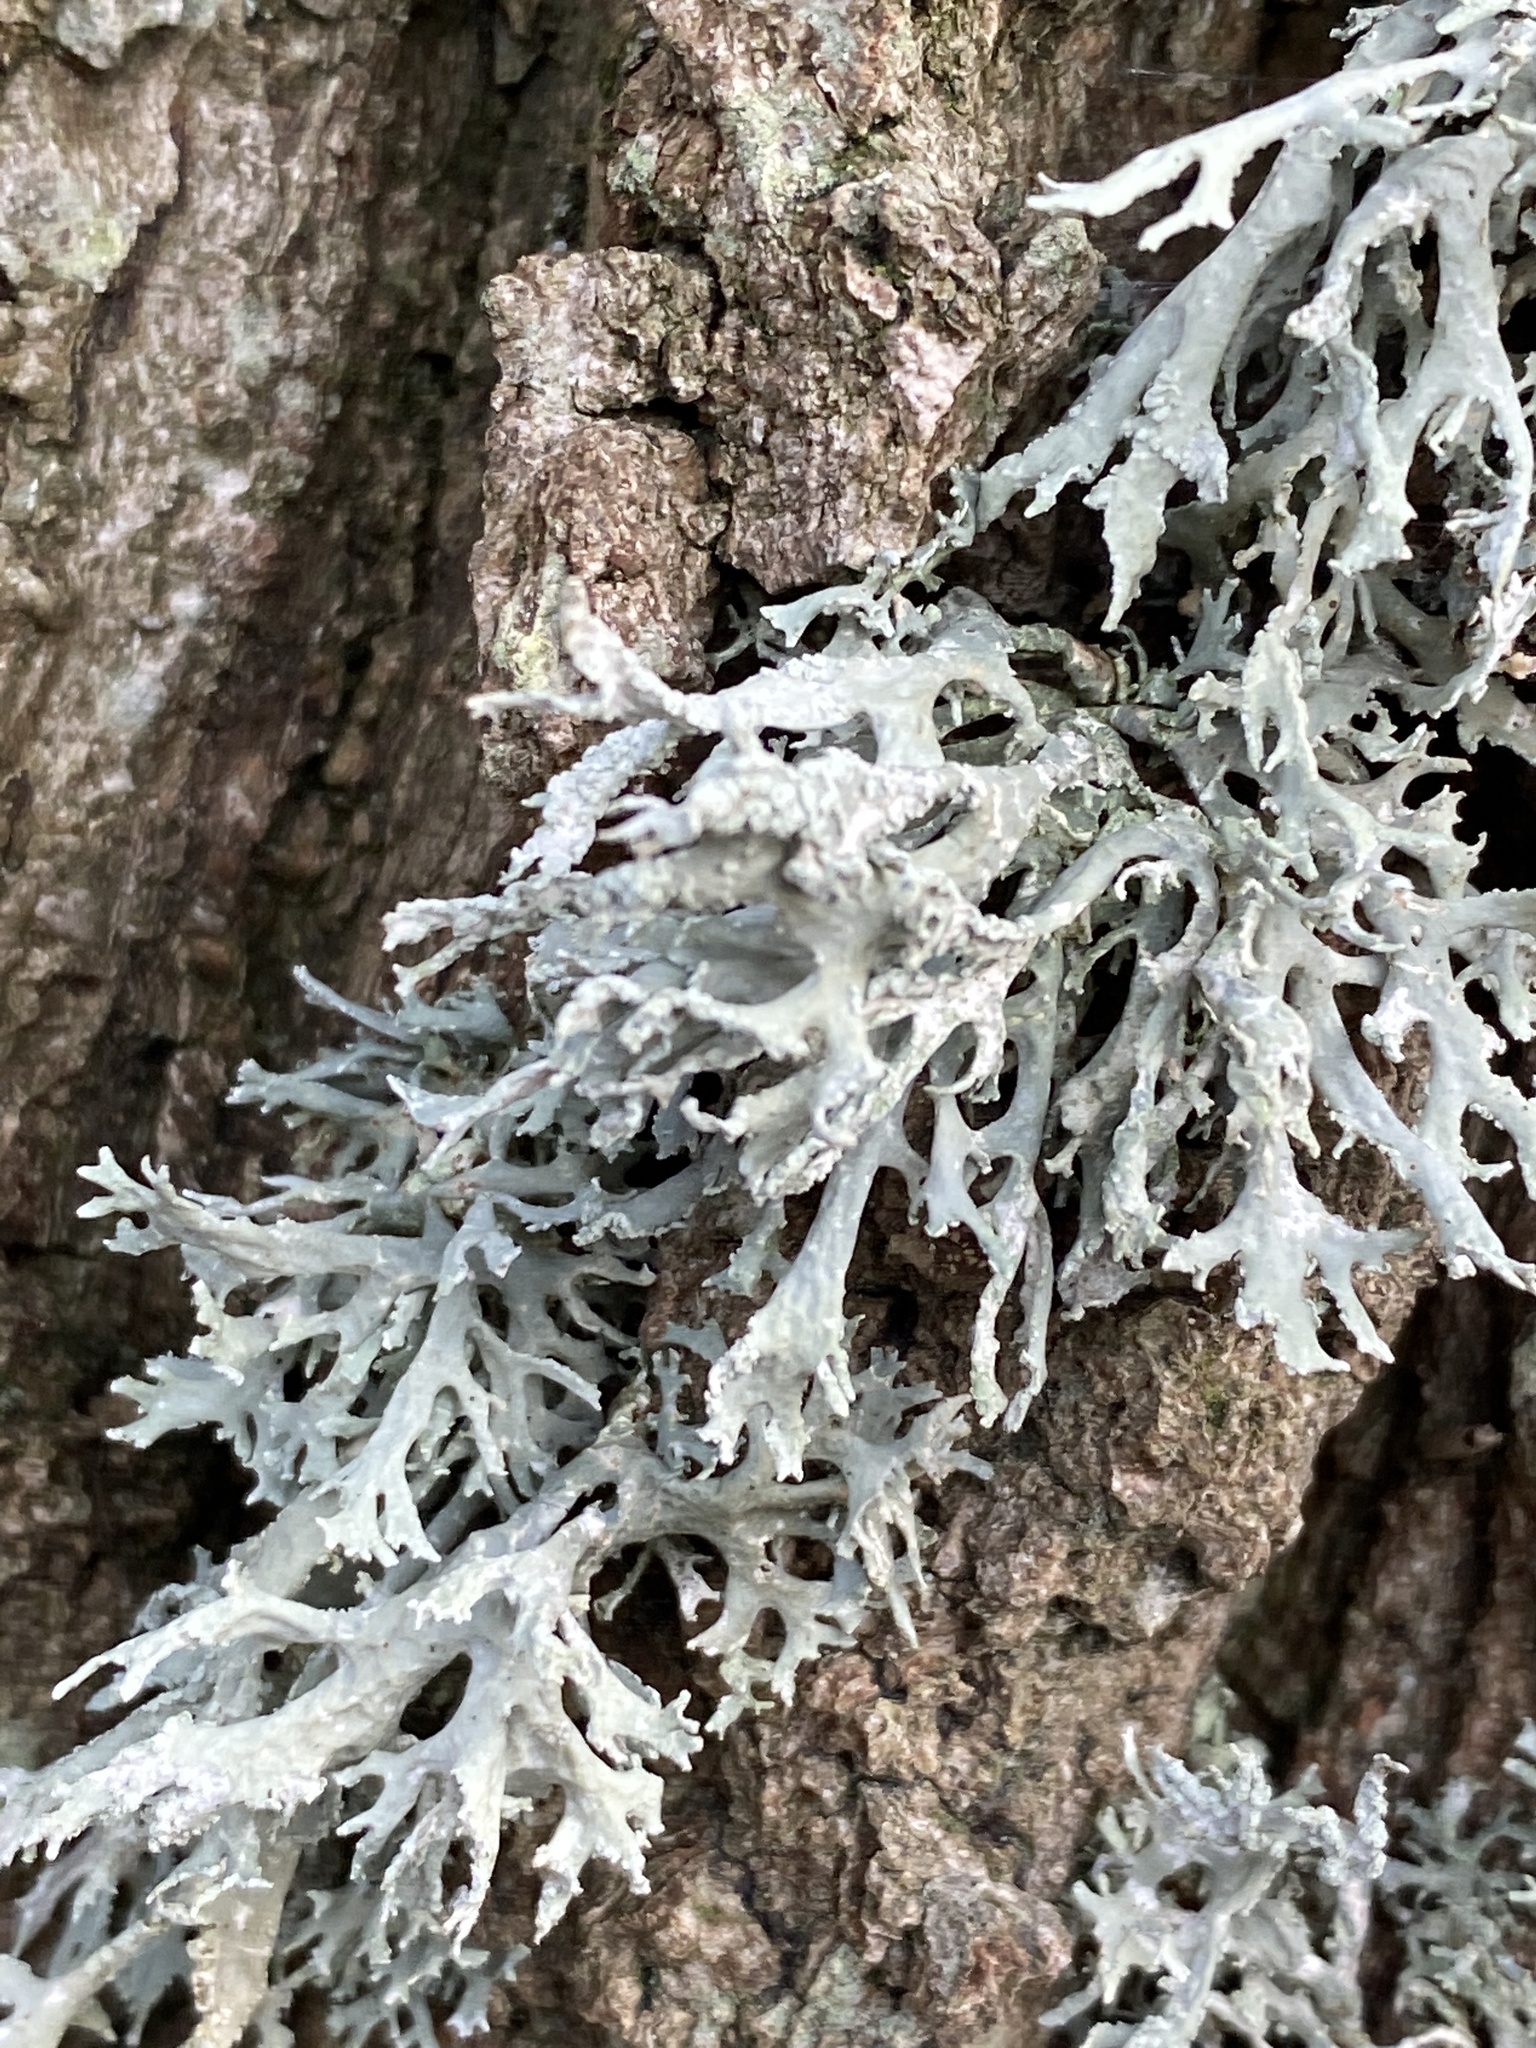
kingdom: Fungi
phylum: Ascomycota
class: Lecanoromycetes
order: Lecanorales
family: Parmeliaceae
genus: Evernia
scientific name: Evernia prunastri
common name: Oak moss
